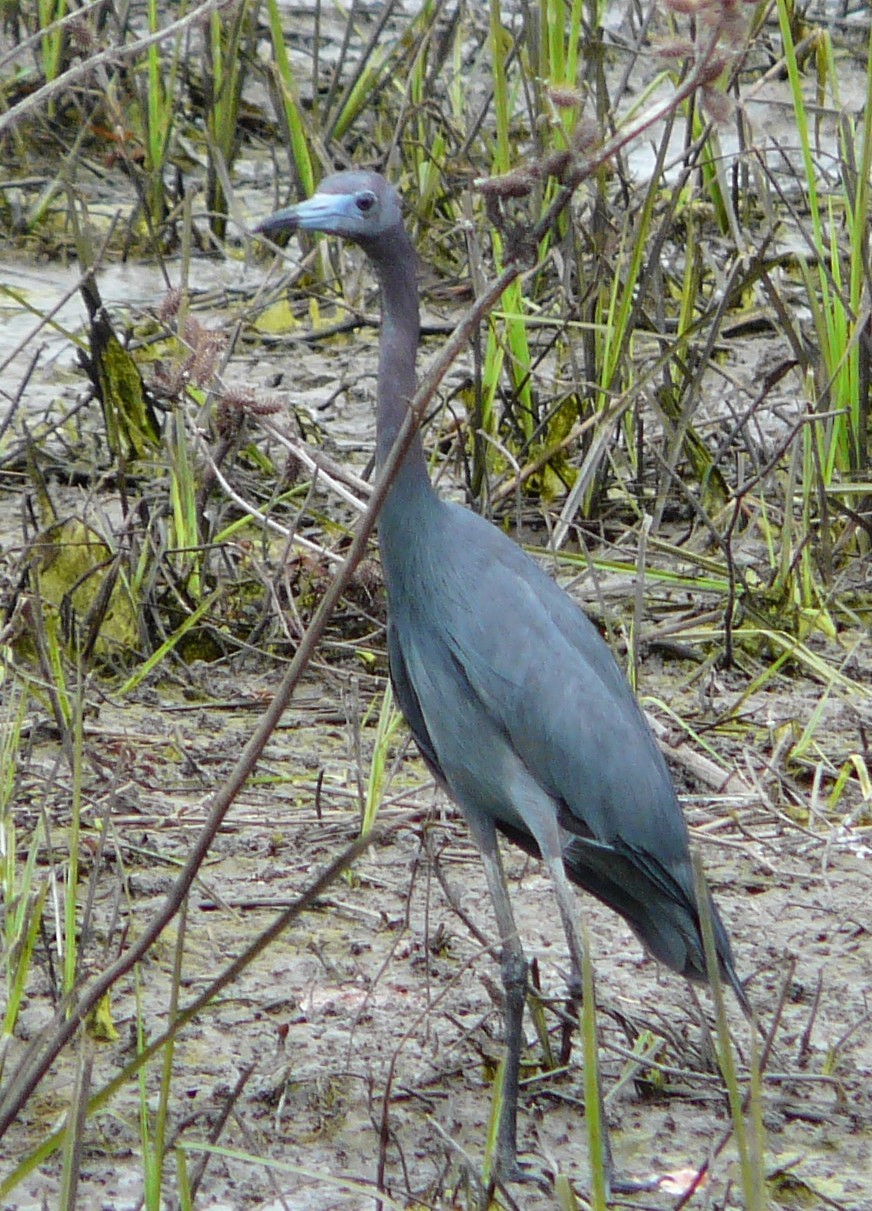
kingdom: Animalia
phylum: Chordata
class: Aves
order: Pelecaniformes
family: Ardeidae
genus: Egretta
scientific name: Egretta caerulea
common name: Little blue heron
